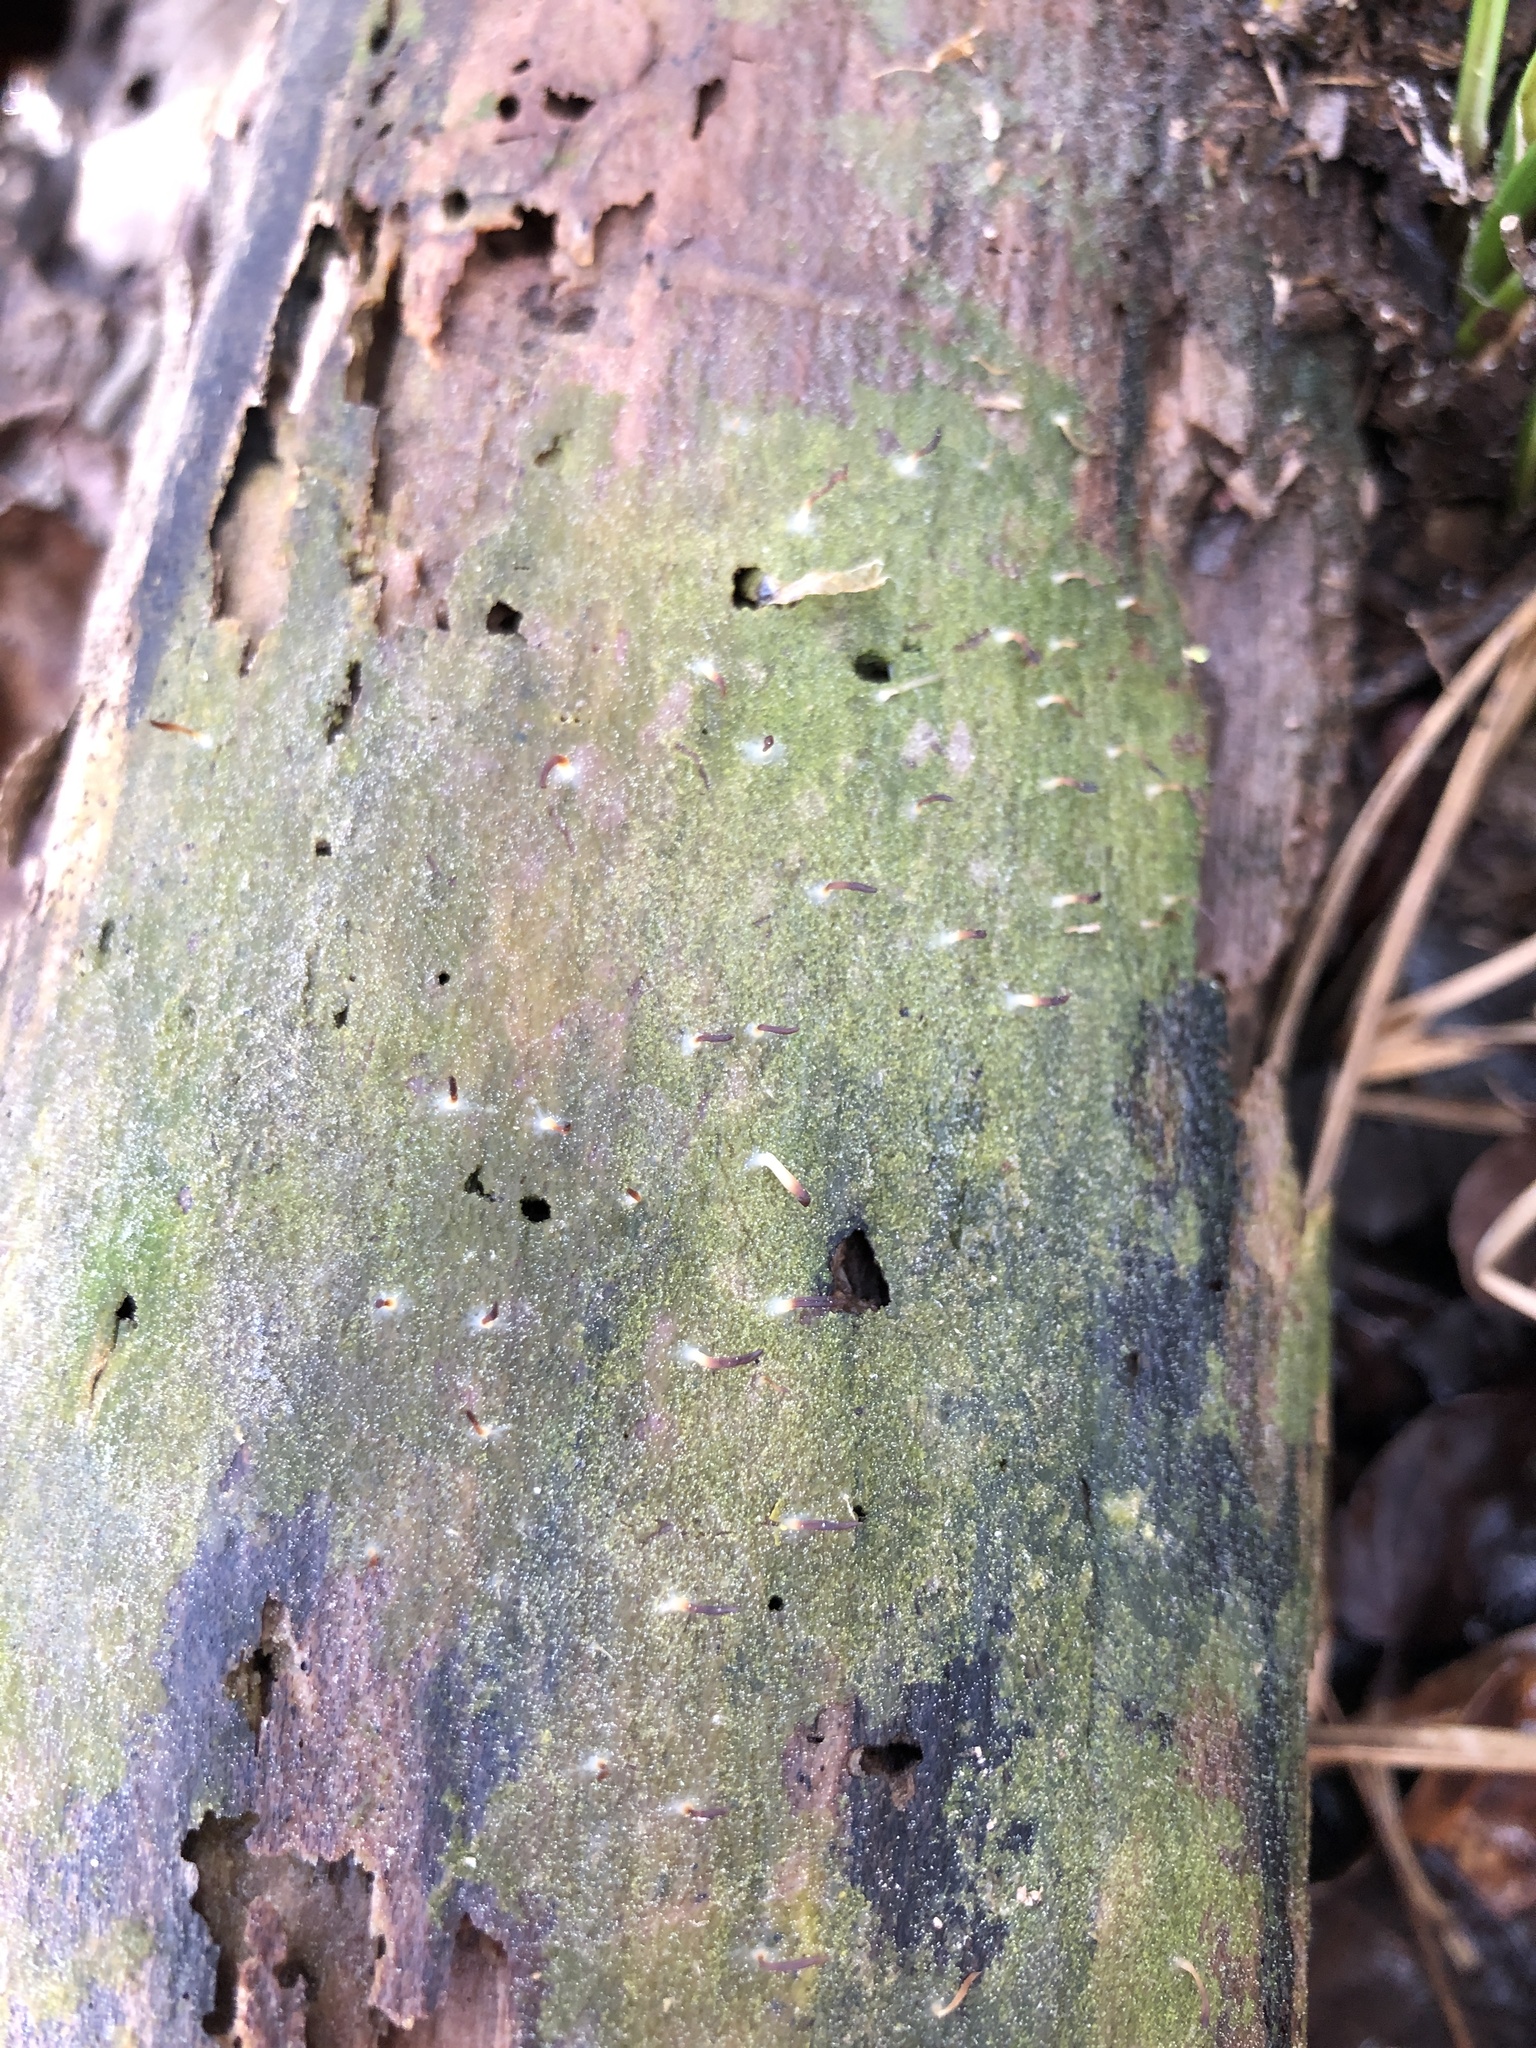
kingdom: Fungi
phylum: Basidiomycota
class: Agaricomycetes
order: Cantharellales
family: Hydnaceae
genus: Multiclavula
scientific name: Multiclavula mucida
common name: White green-algae coral
